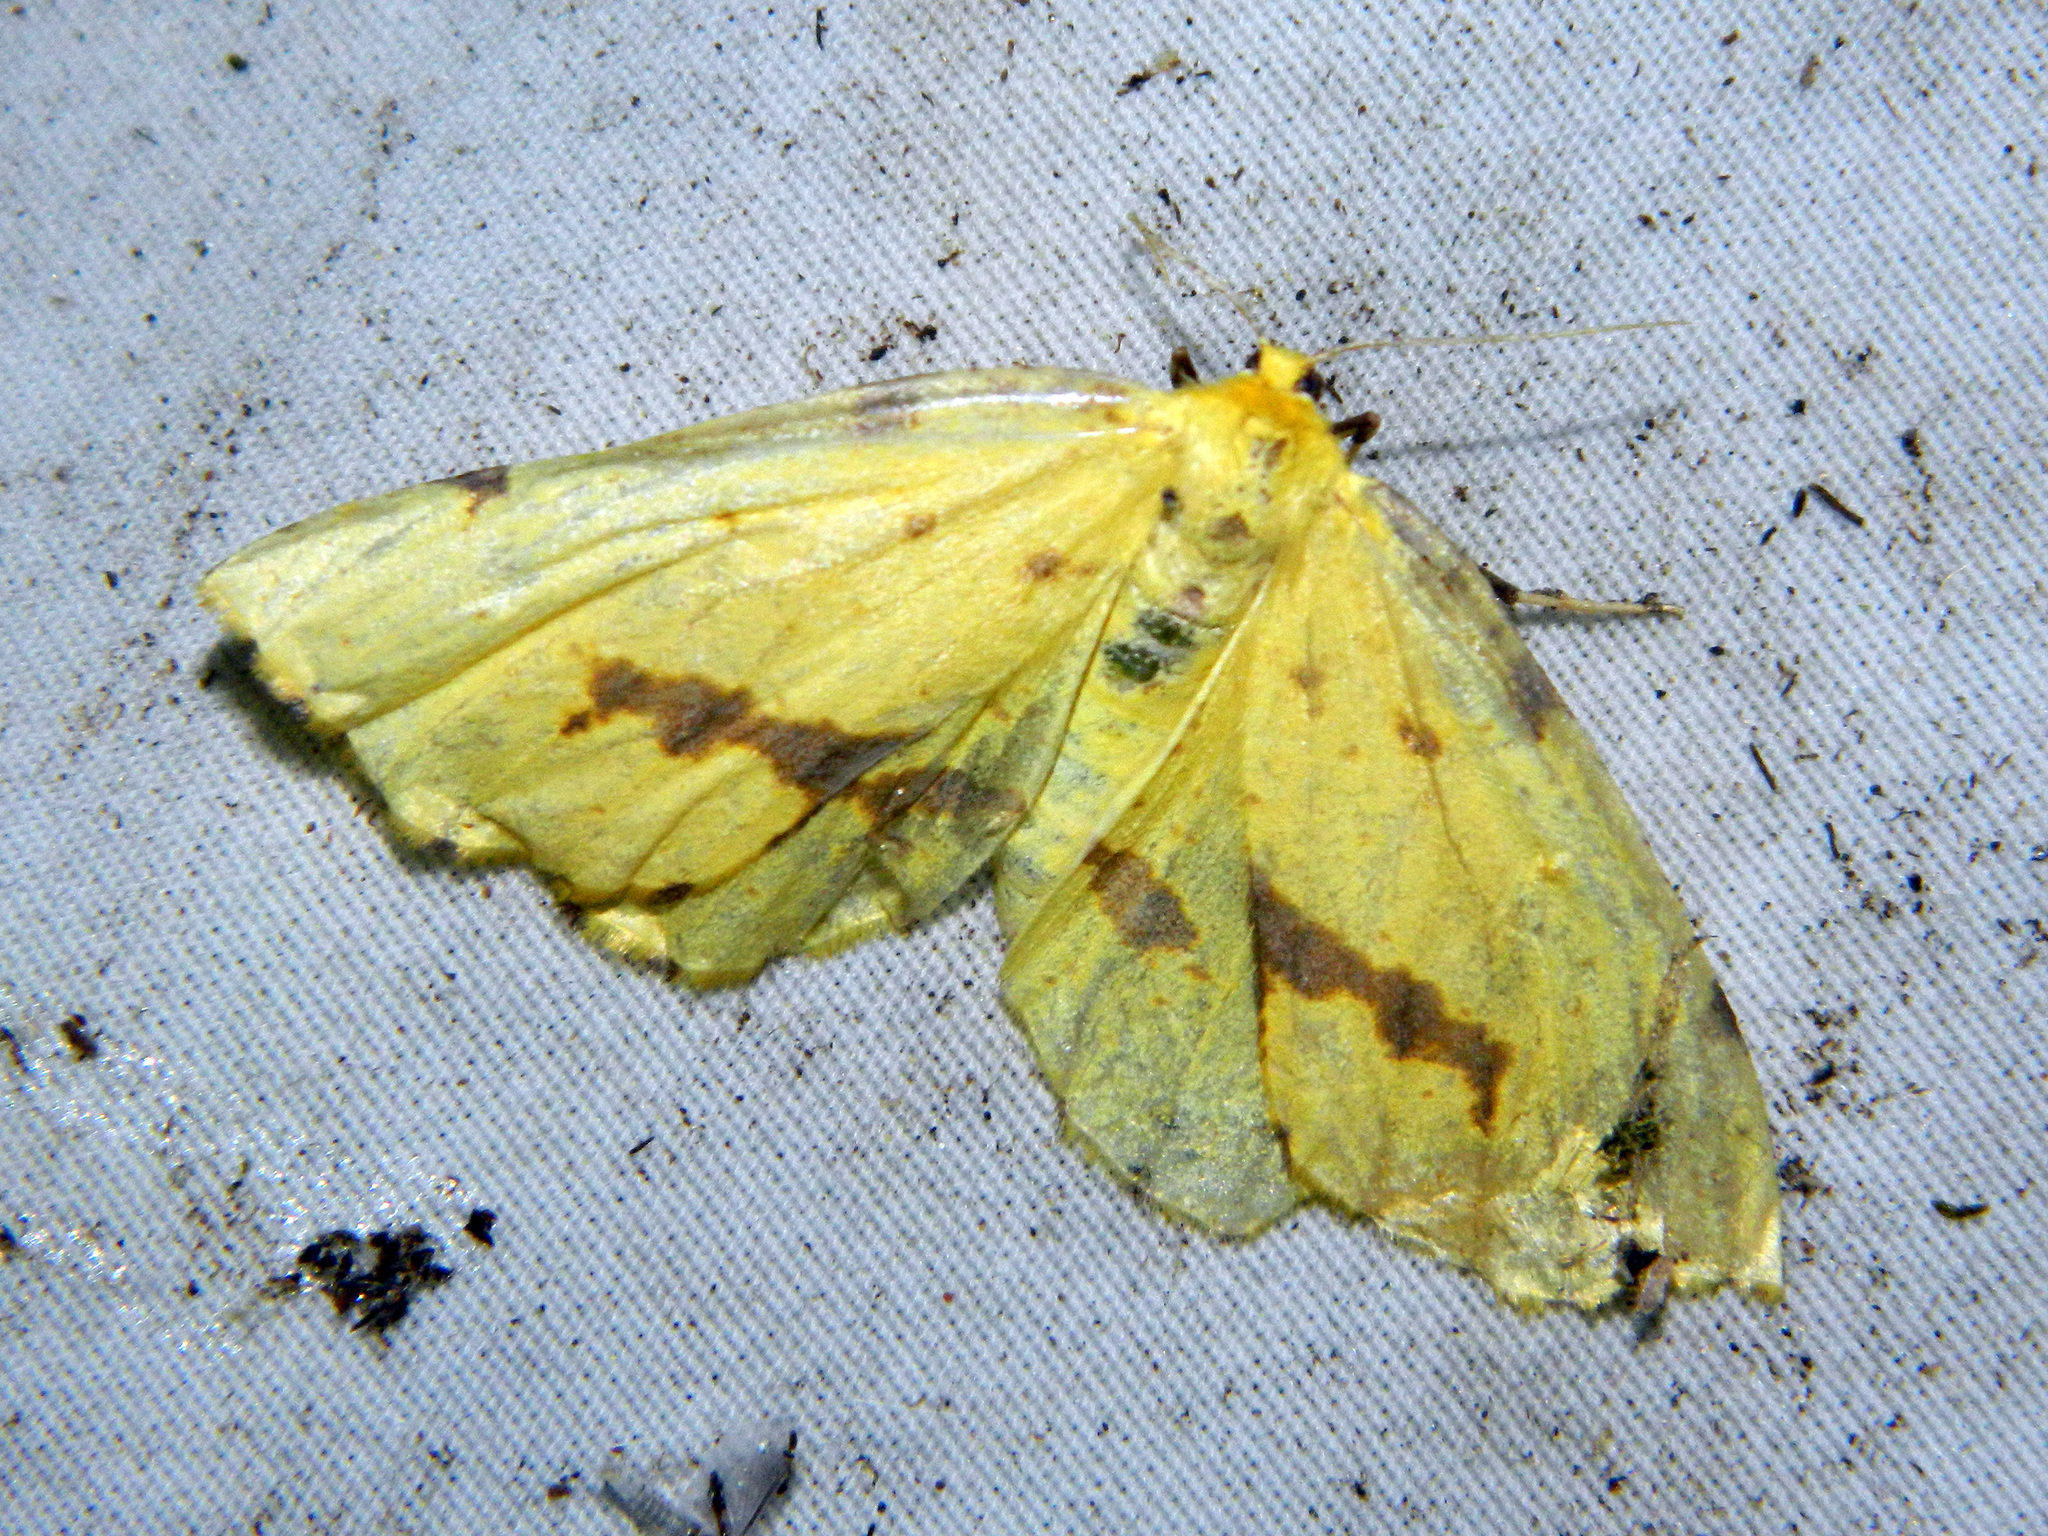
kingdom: Animalia
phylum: Arthropoda
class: Insecta
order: Lepidoptera
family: Geometridae
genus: Xanthotype
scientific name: Xanthotype
